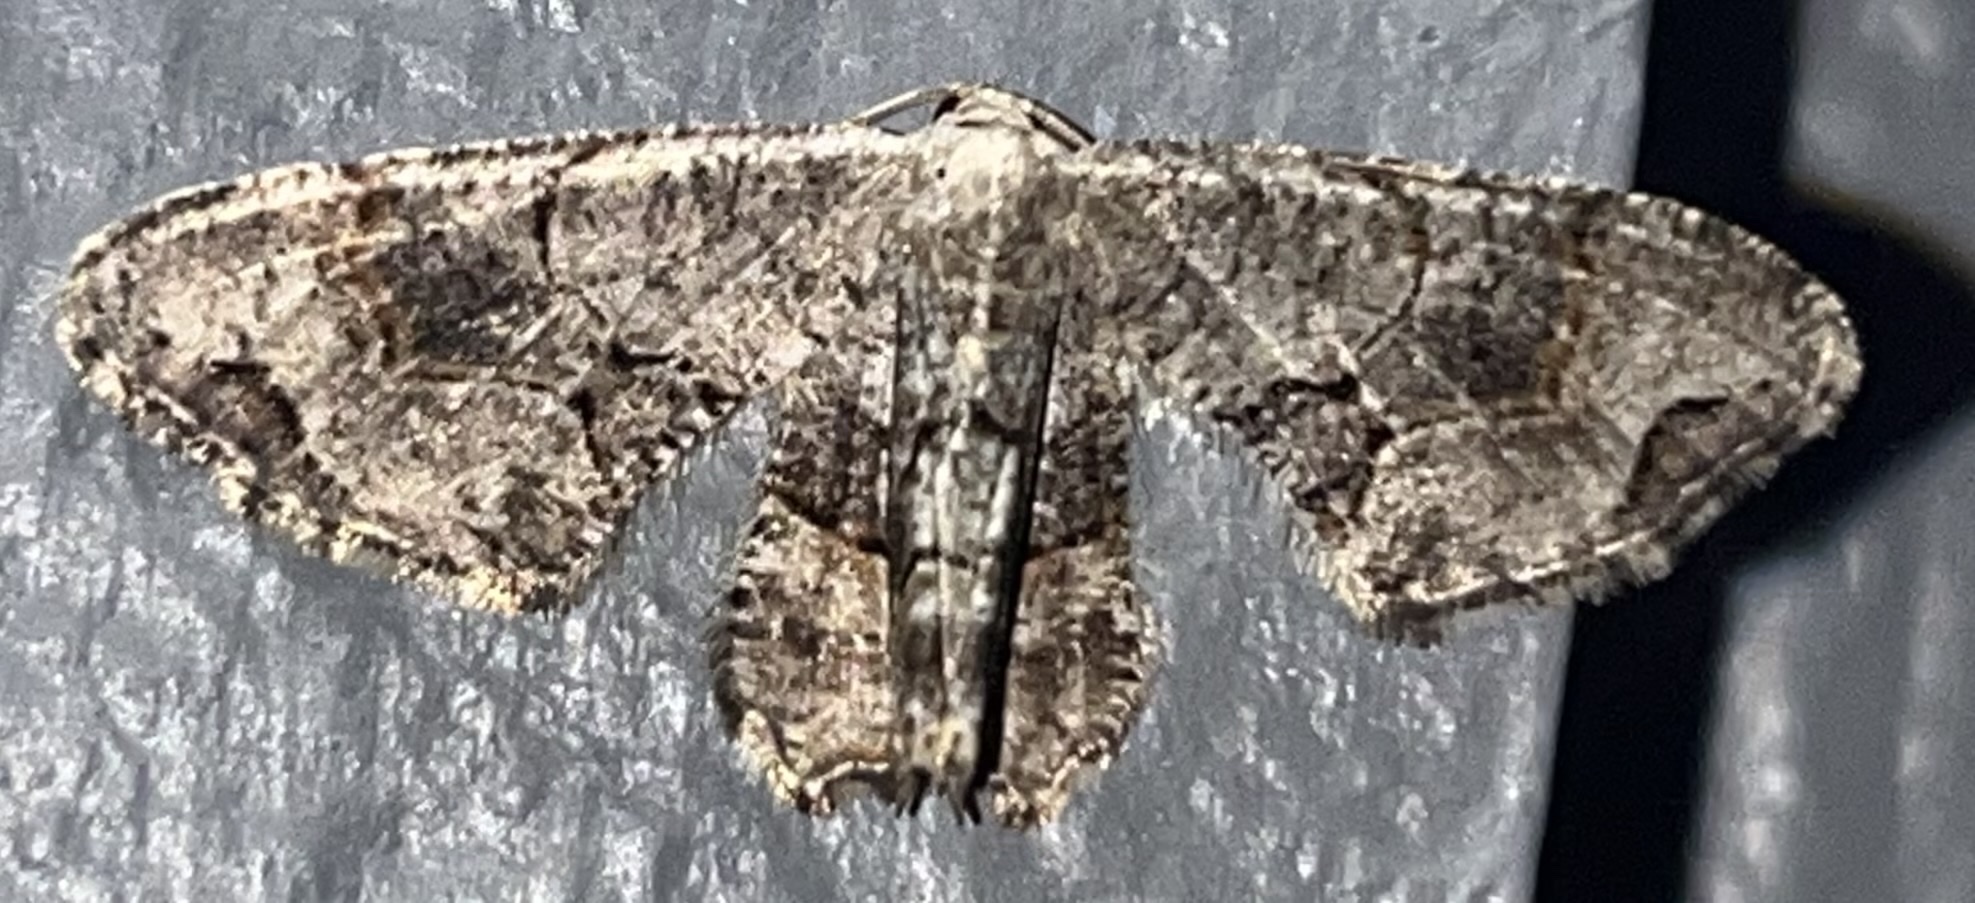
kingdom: Animalia
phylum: Arthropoda
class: Insecta
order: Lepidoptera
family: Uraniidae
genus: Epiplema
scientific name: Epiplema Callizzia amorata
